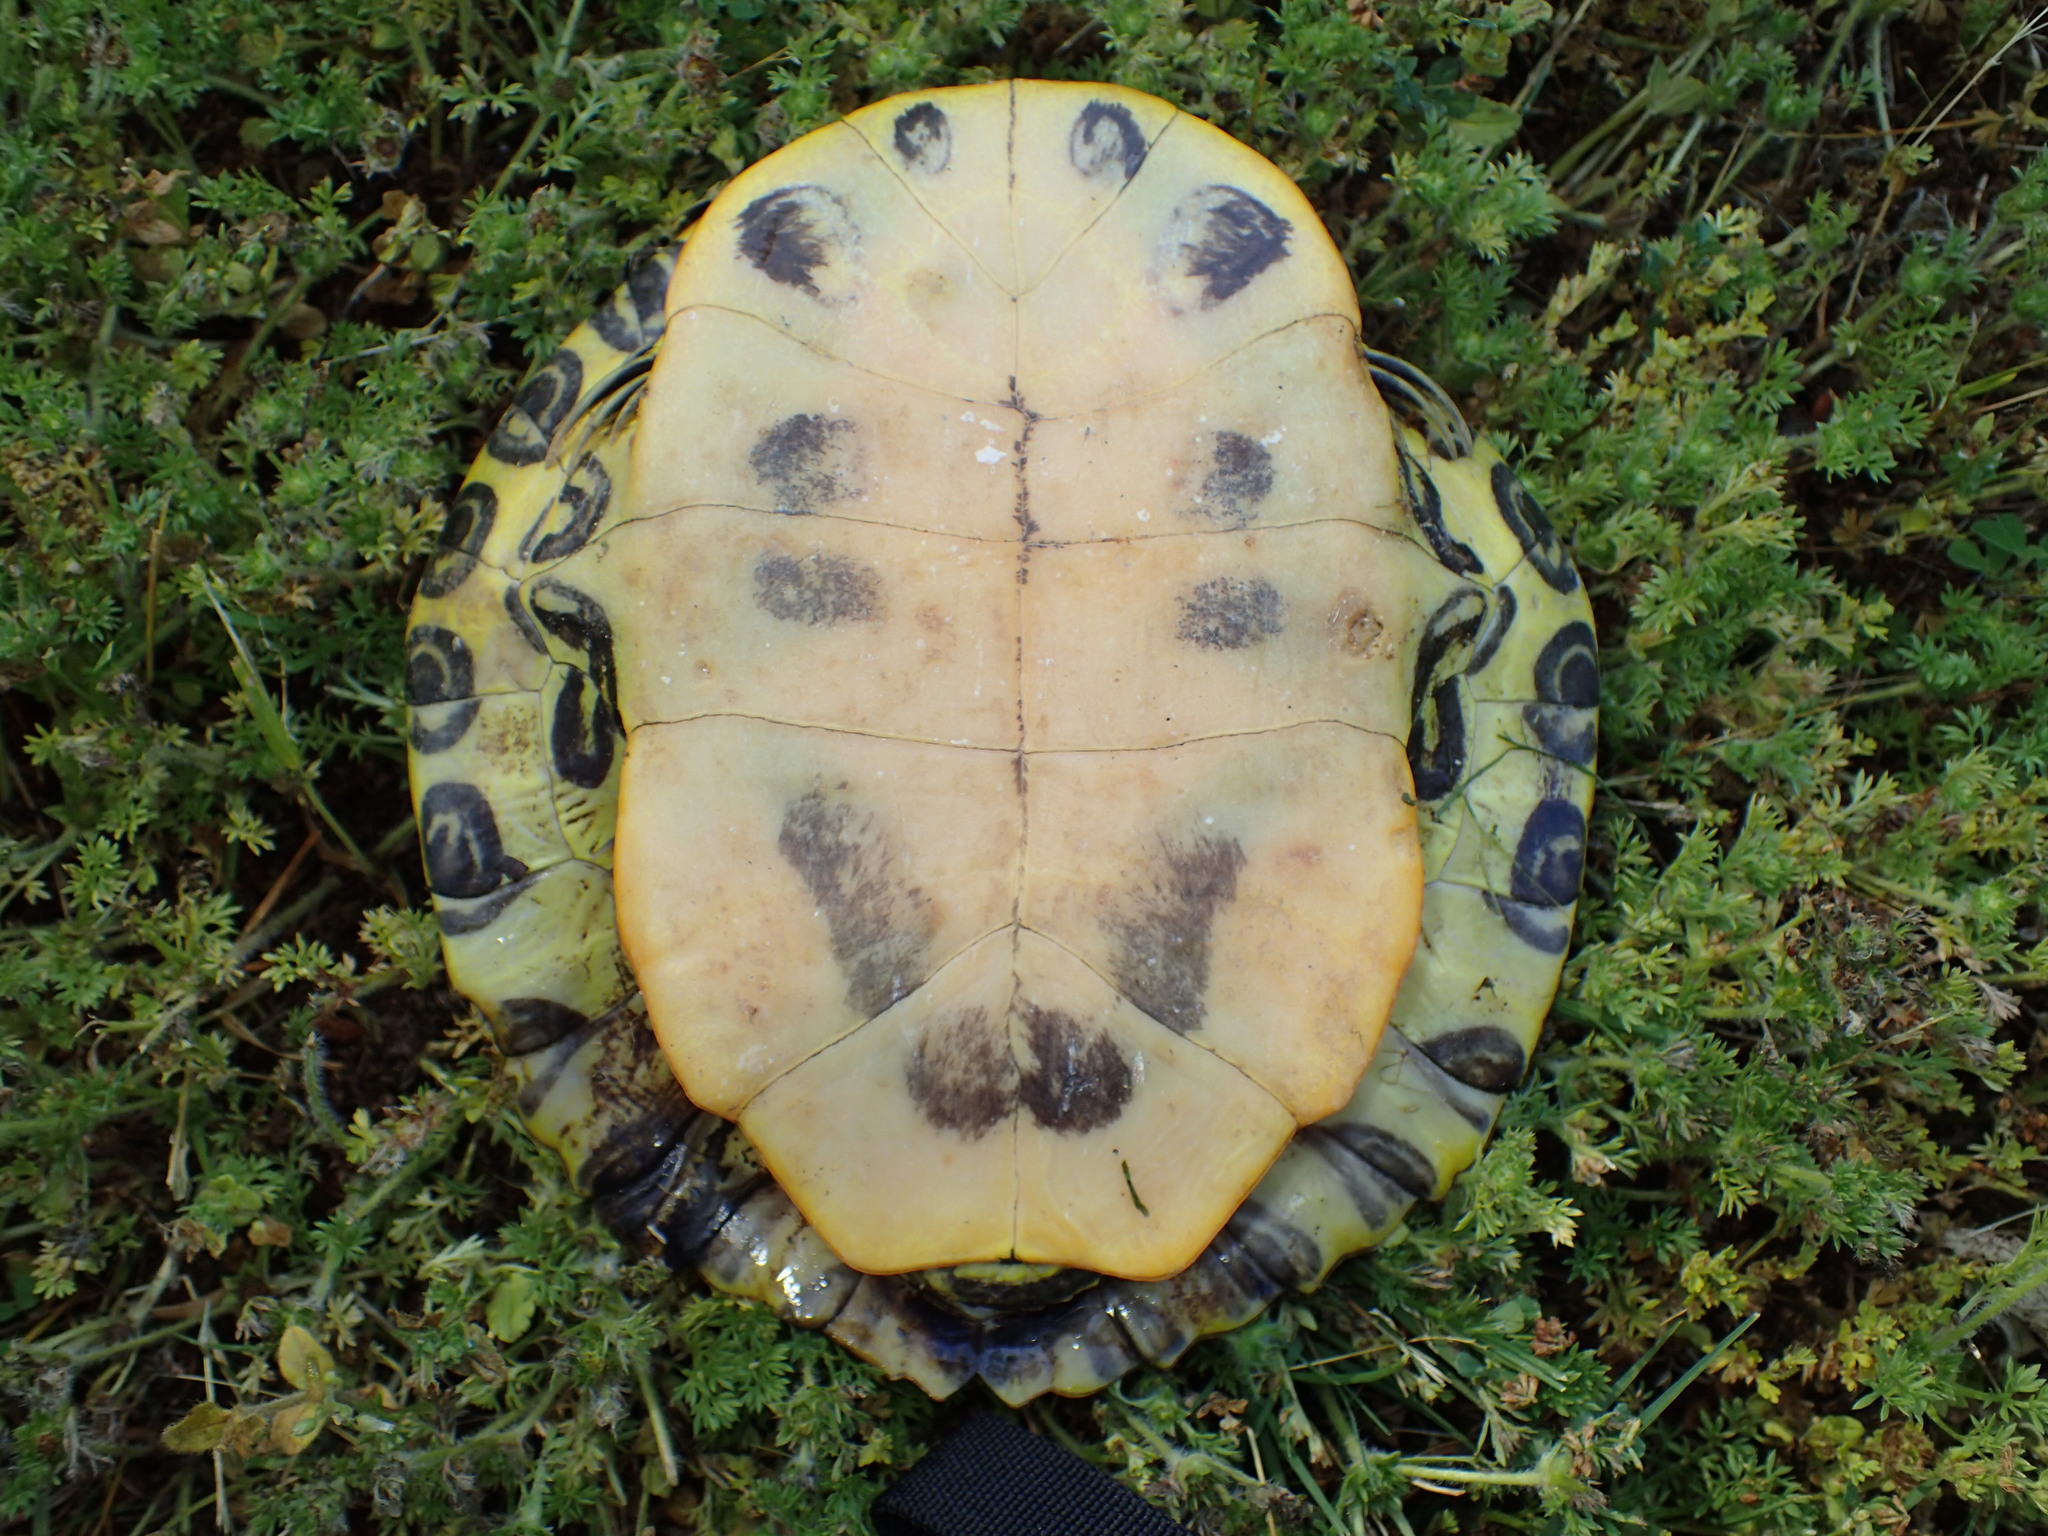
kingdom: Animalia
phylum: Chordata
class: Testudines
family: Emydidae
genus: Trachemys
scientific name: Trachemys scripta
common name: Slider
